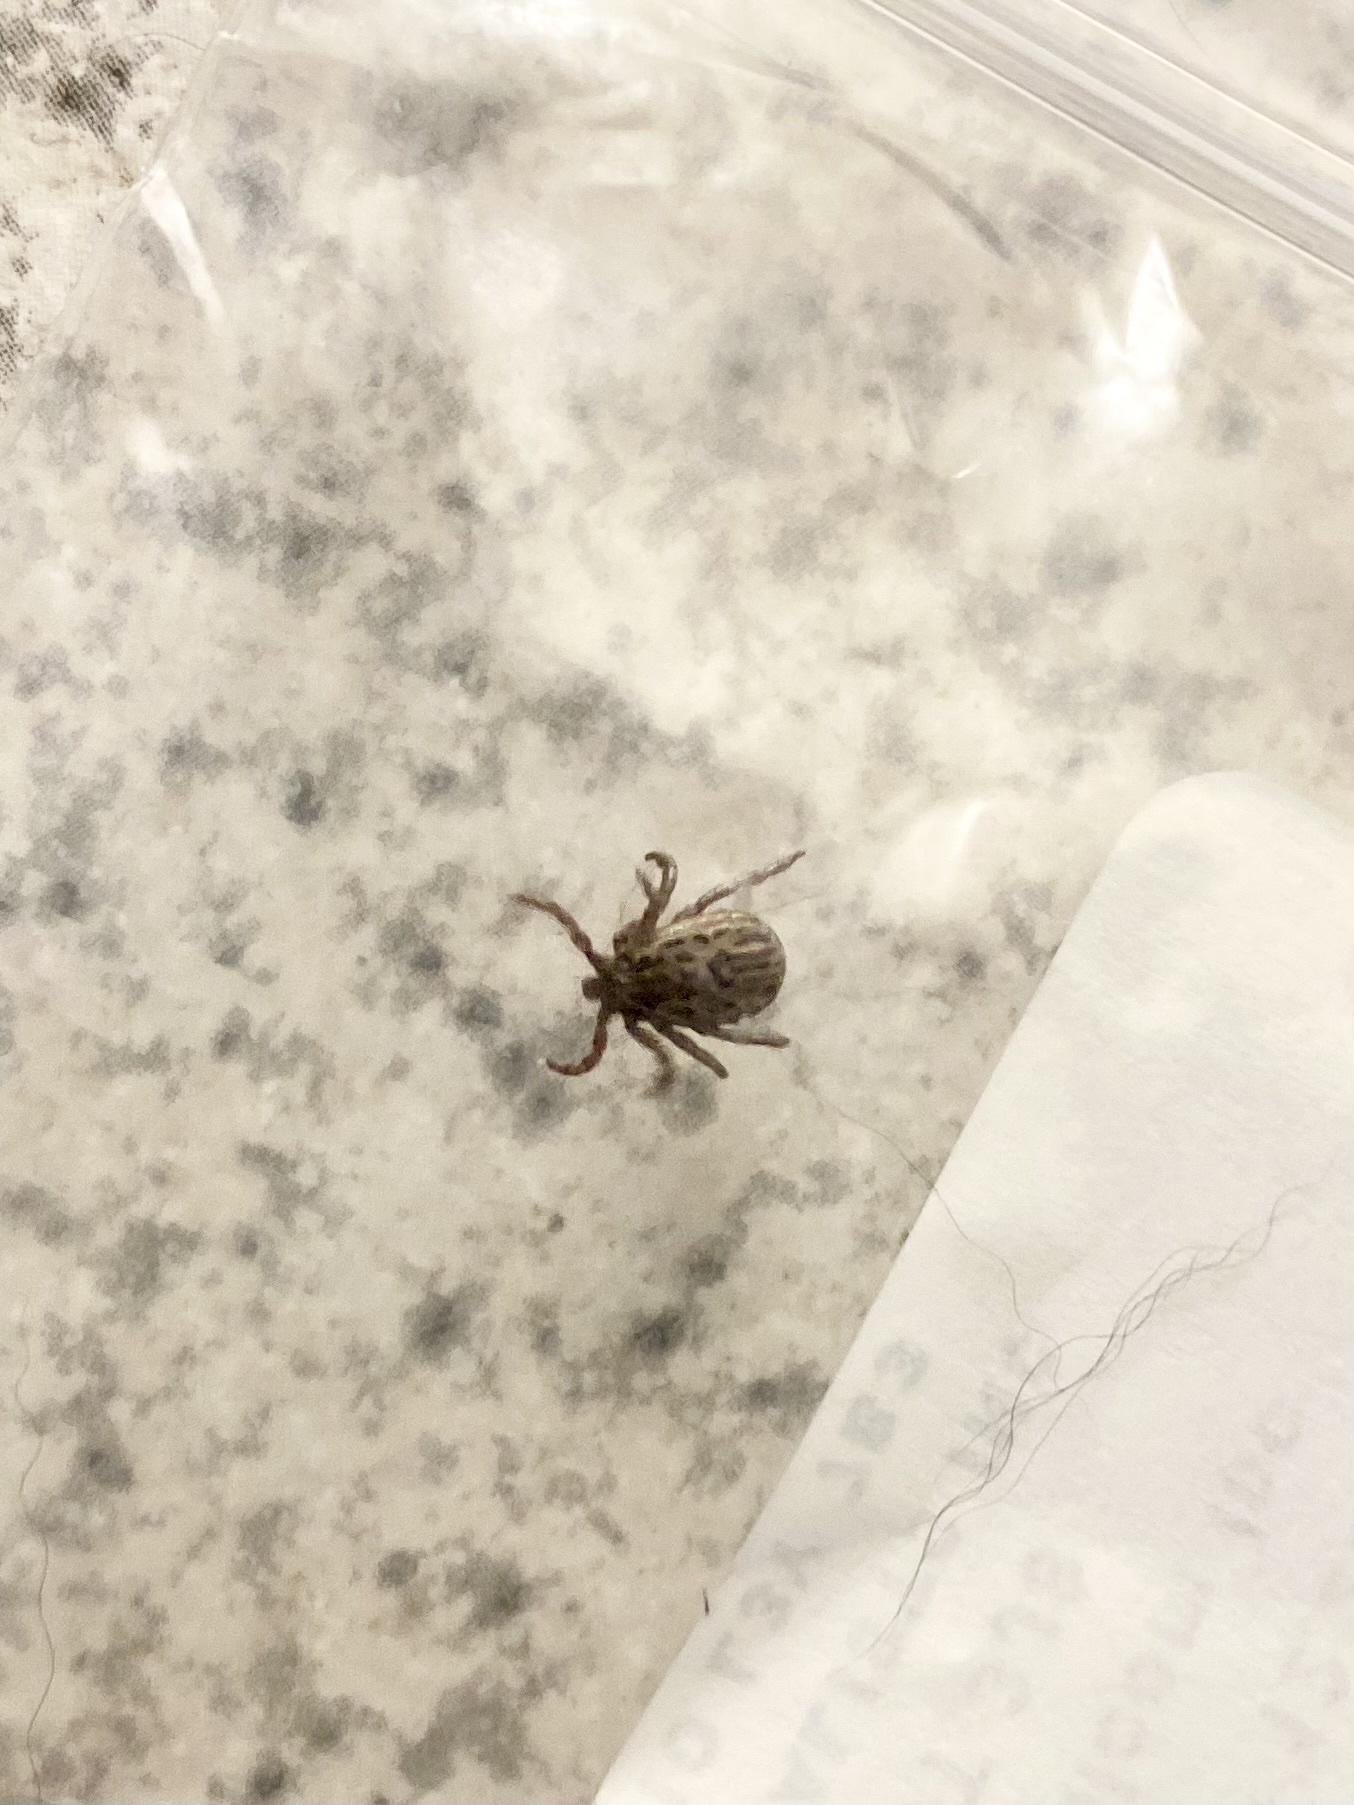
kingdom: Animalia
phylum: Arthropoda
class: Arachnida
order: Ixodida
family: Ixodidae
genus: Dermacentor
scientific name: Dermacentor albipictus
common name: Moose tick
